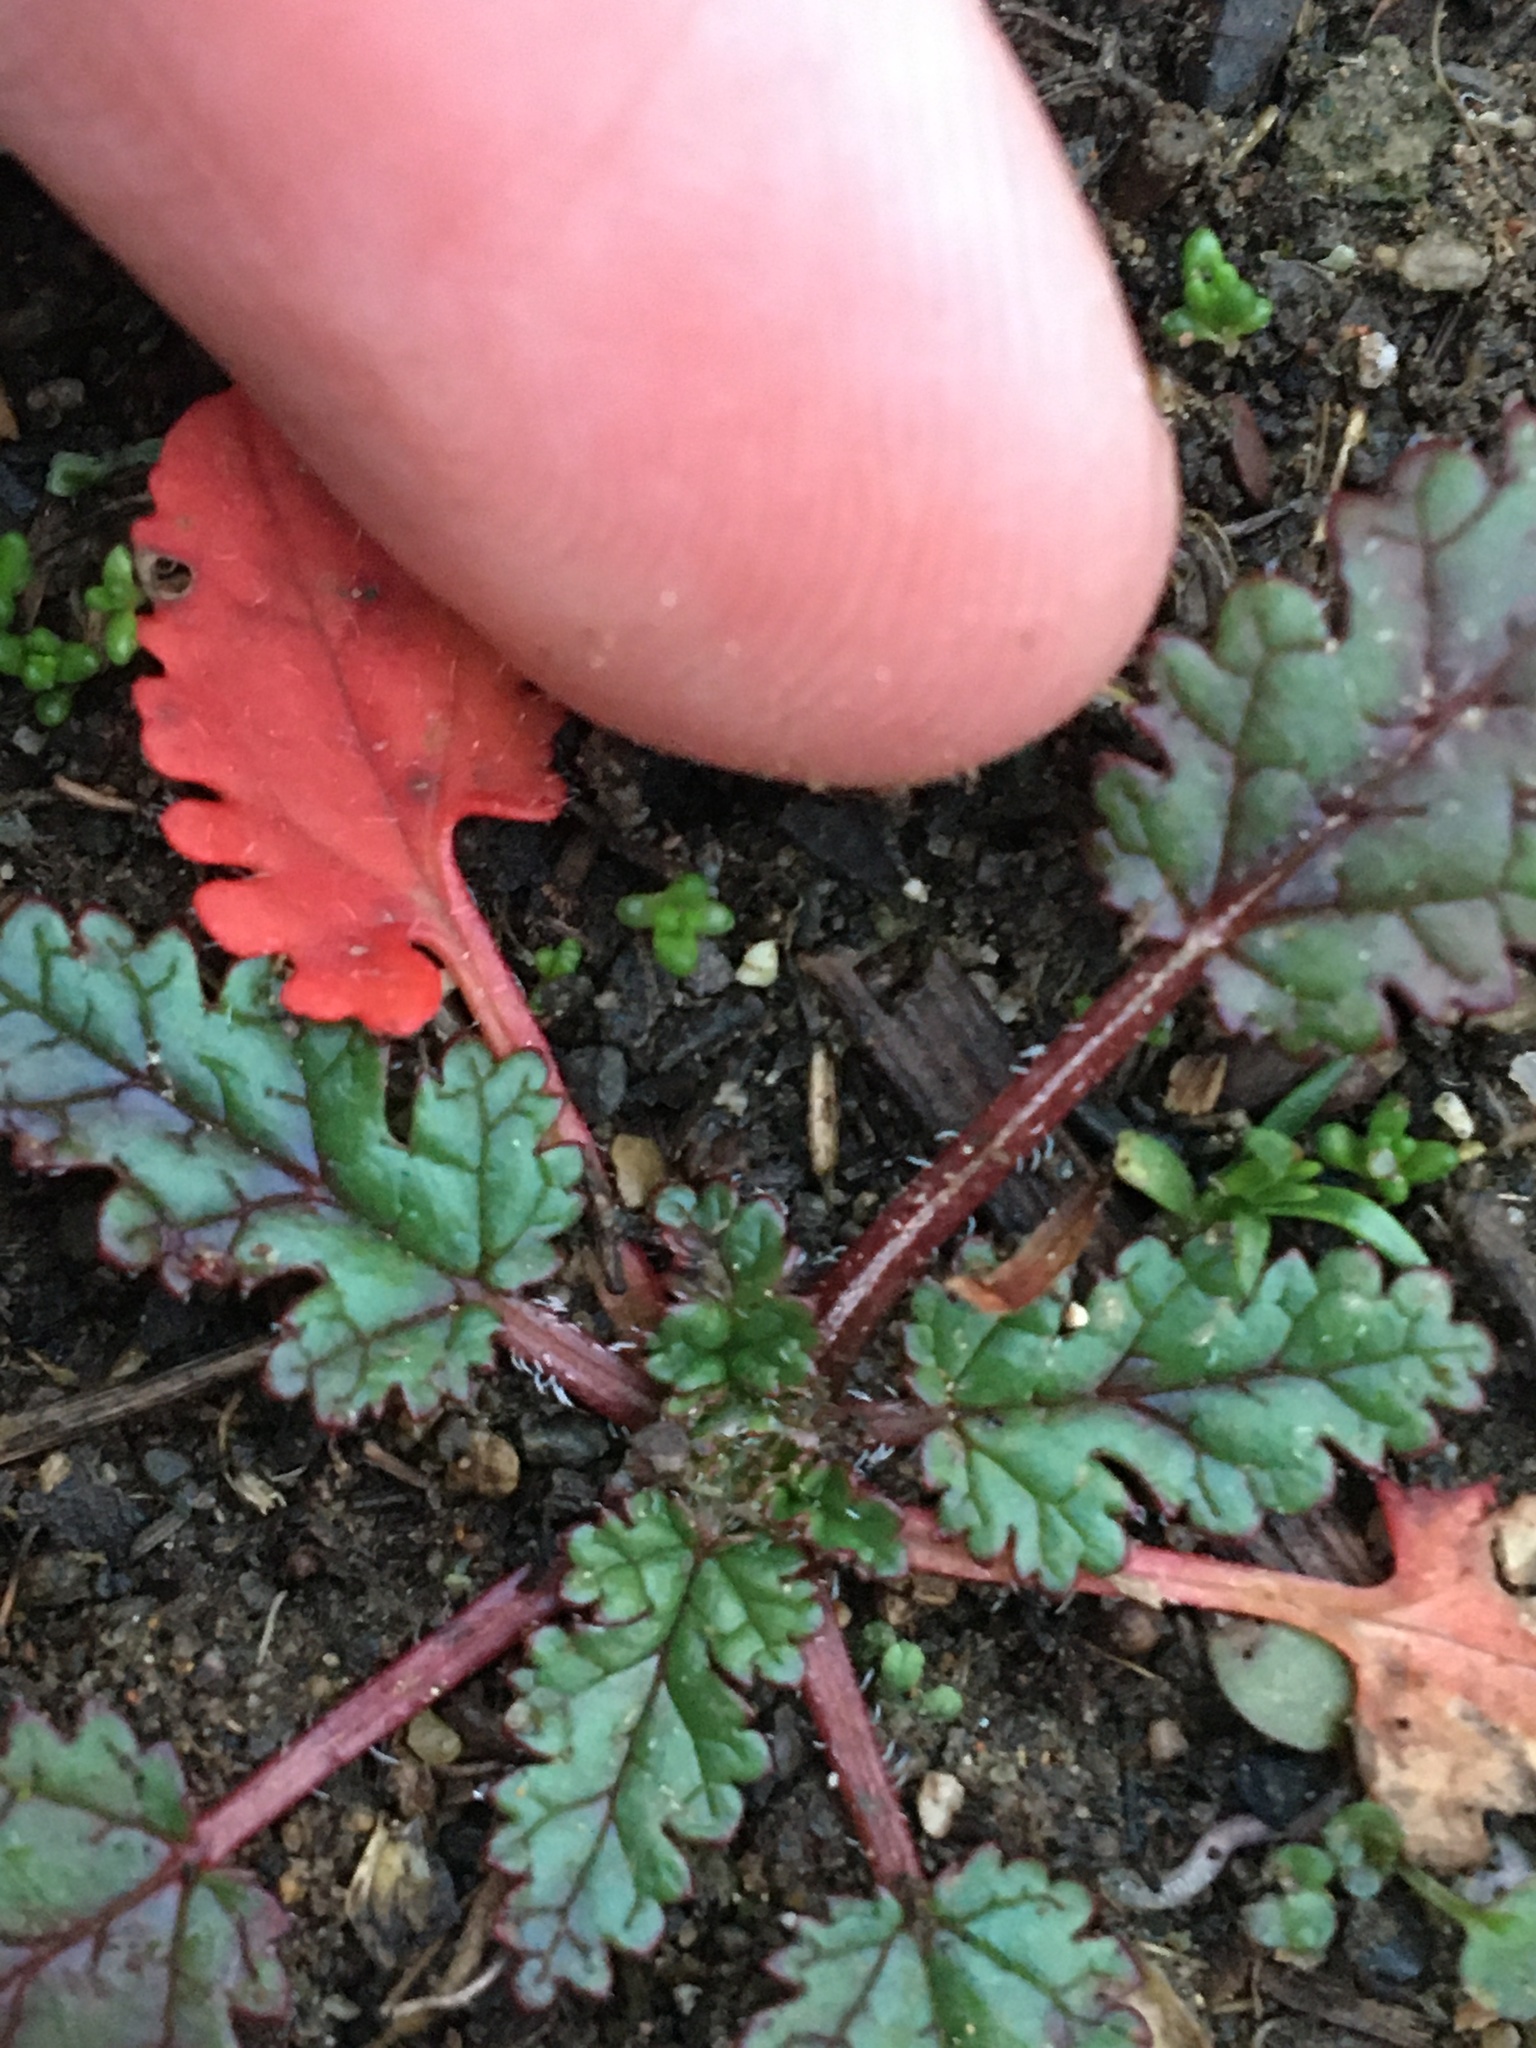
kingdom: Plantae
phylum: Tracheophyta
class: Magnoliopsida
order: Geraniales
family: Geraniaceae
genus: Erodium
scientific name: Erodium
